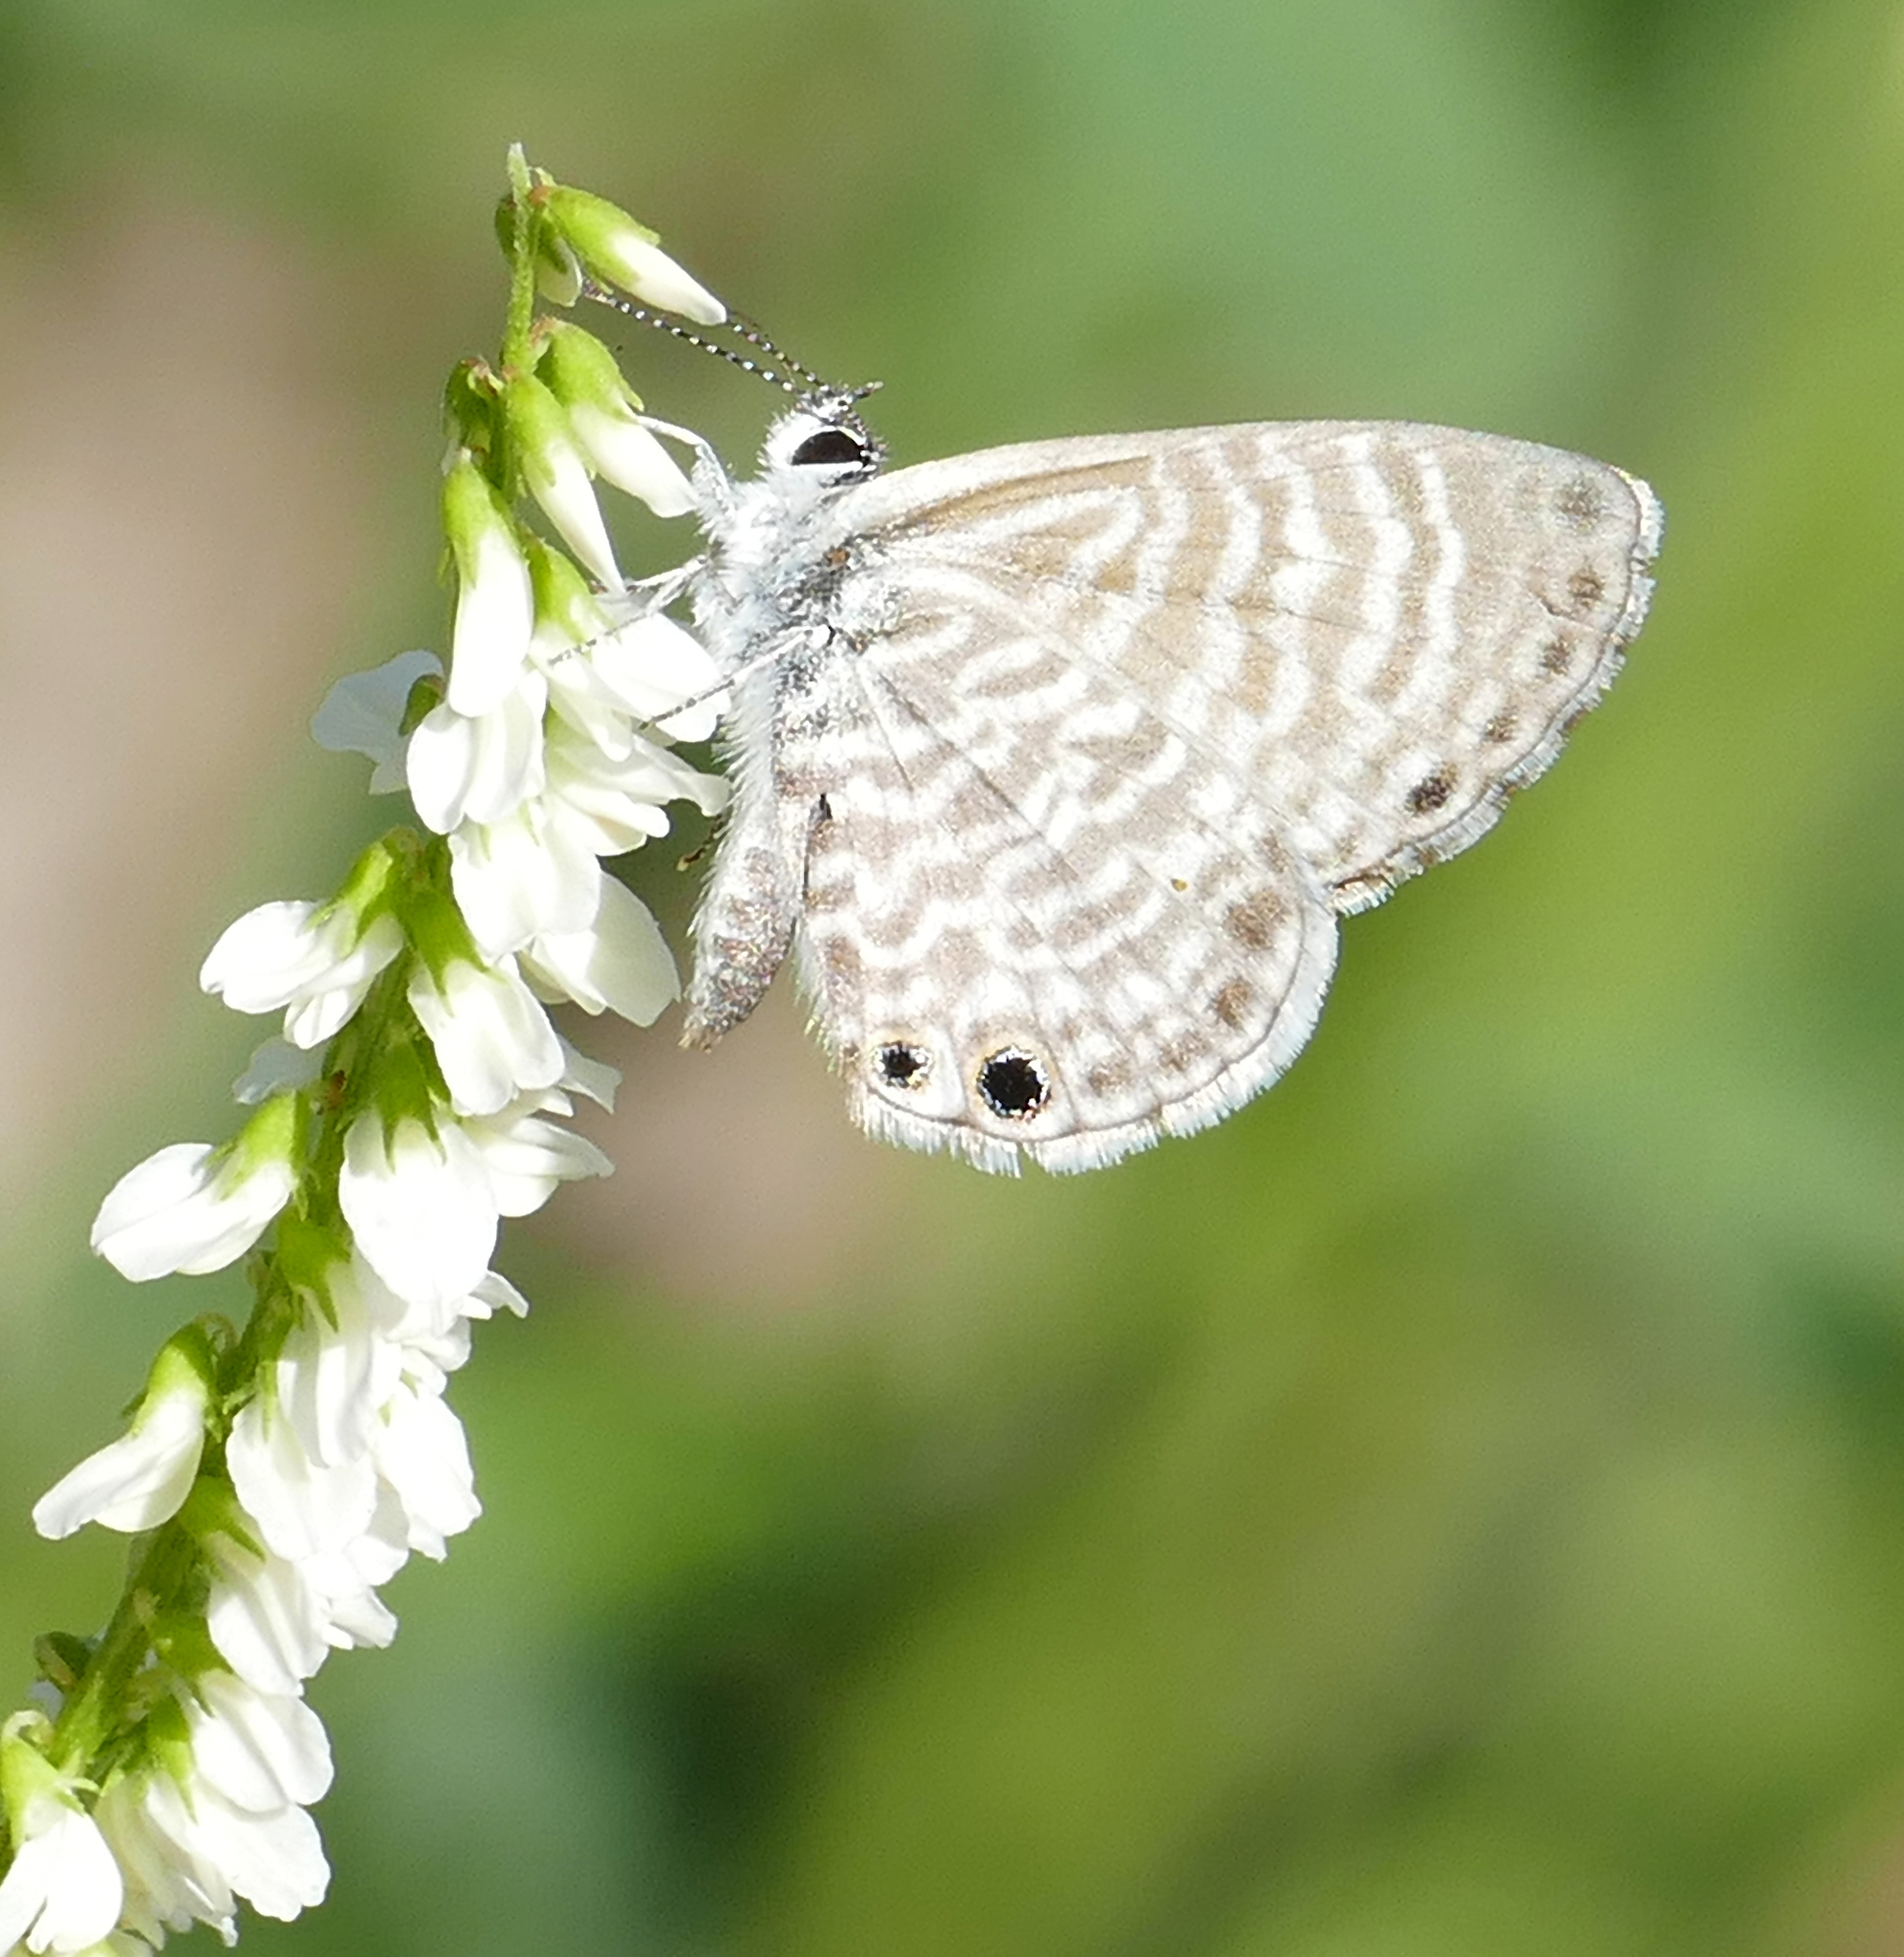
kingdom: Animalia
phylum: Arthropoda
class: Insecta
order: Lepidoptera
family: Lycaenidae
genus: Leptotes
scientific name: Leptotes marina
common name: Marine blue
